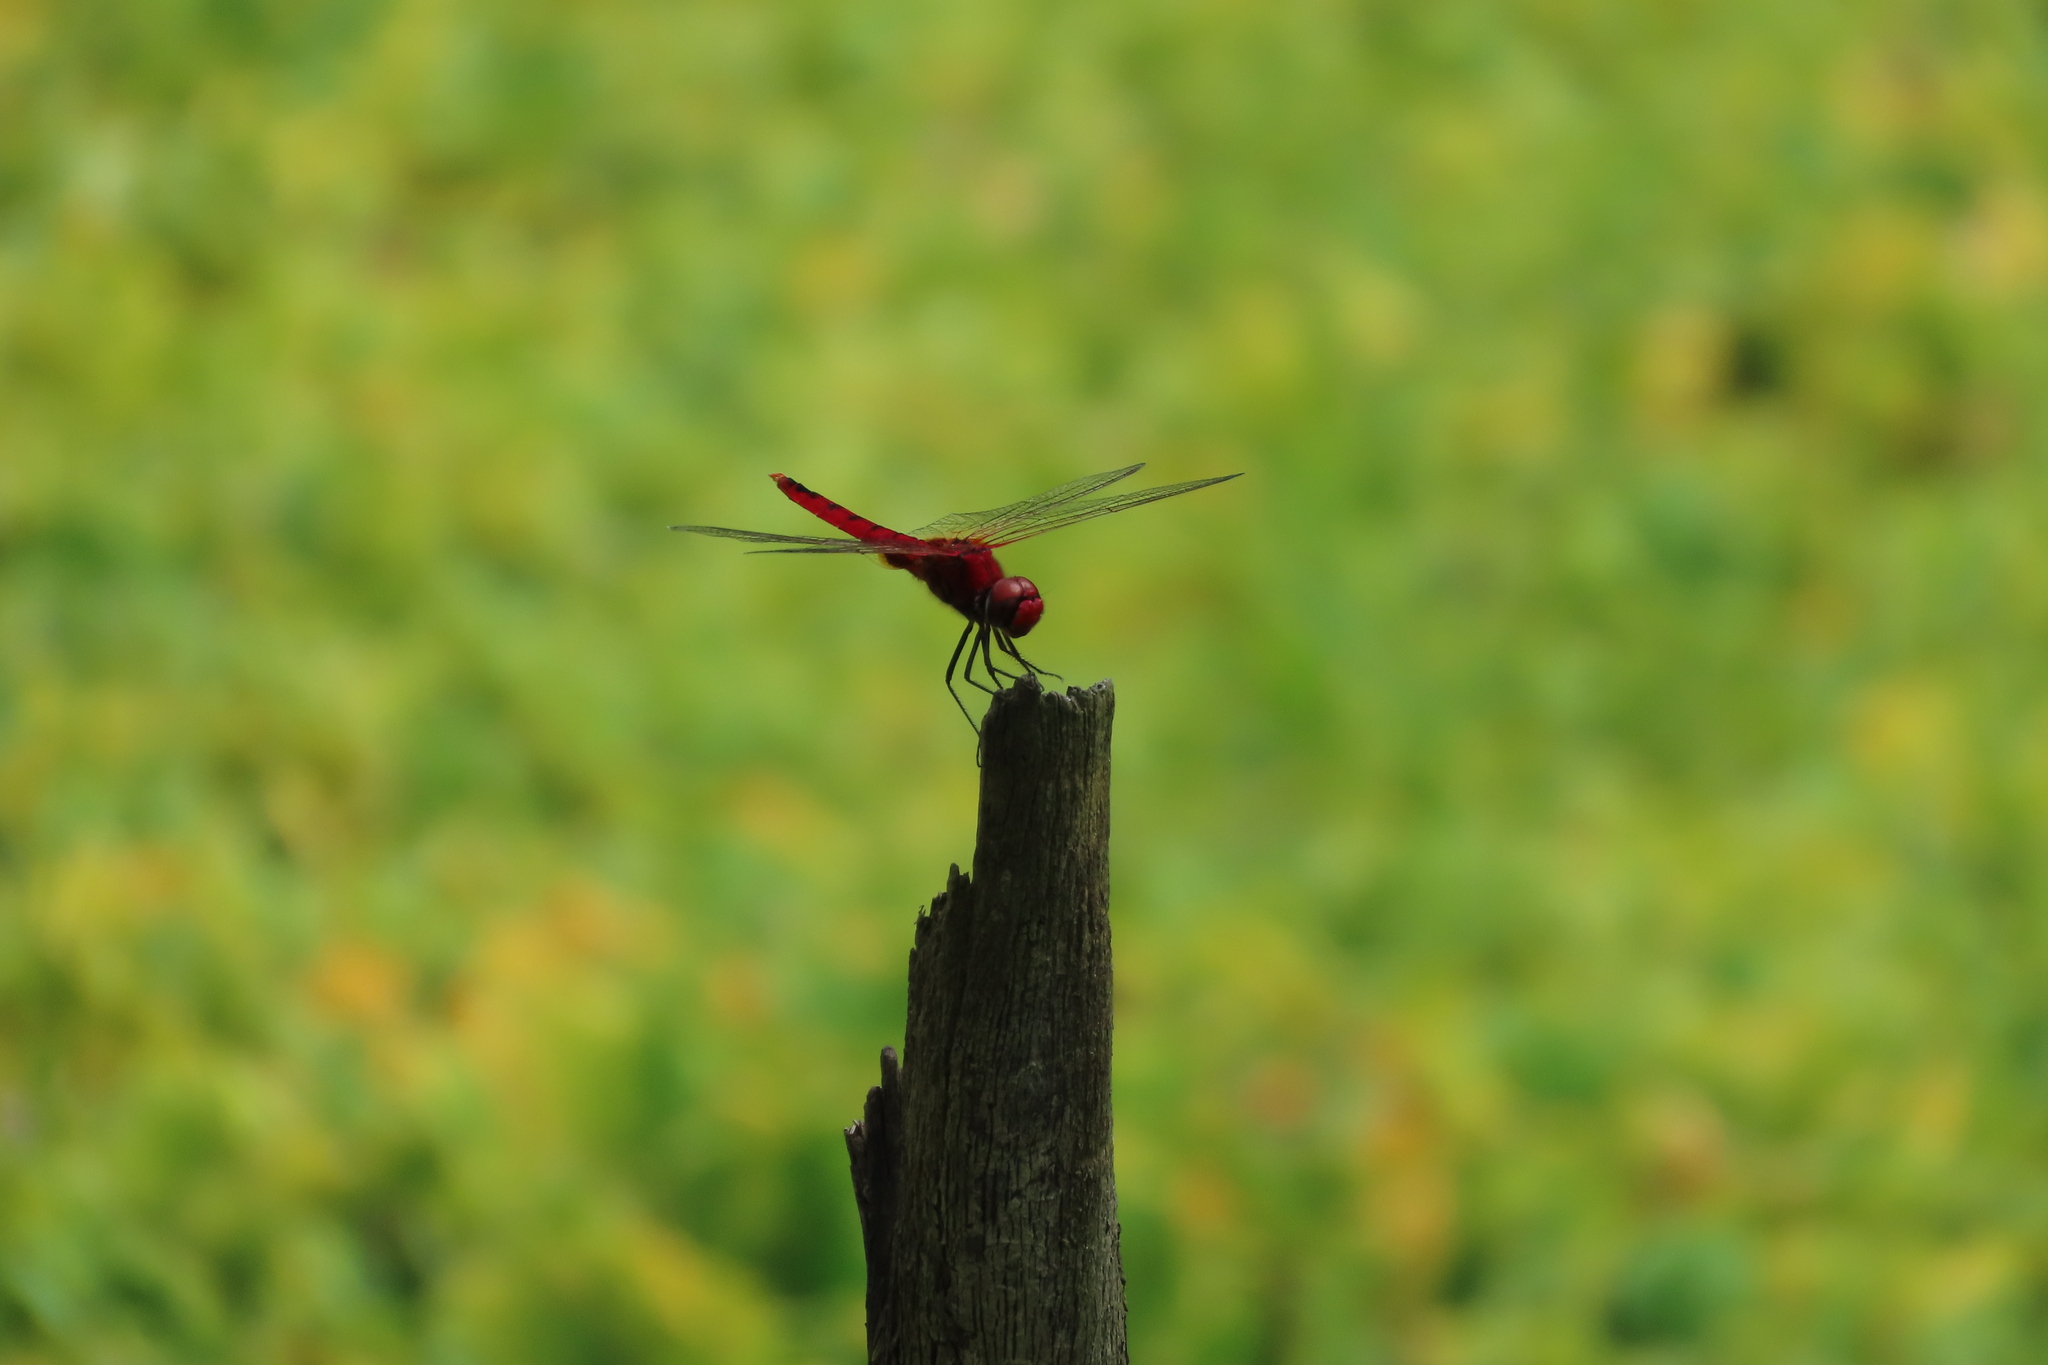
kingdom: Animalia
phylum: Arthropoda
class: Insecta
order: Odonata
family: Libellulidae
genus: Urothemis
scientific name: Urothemis signata
